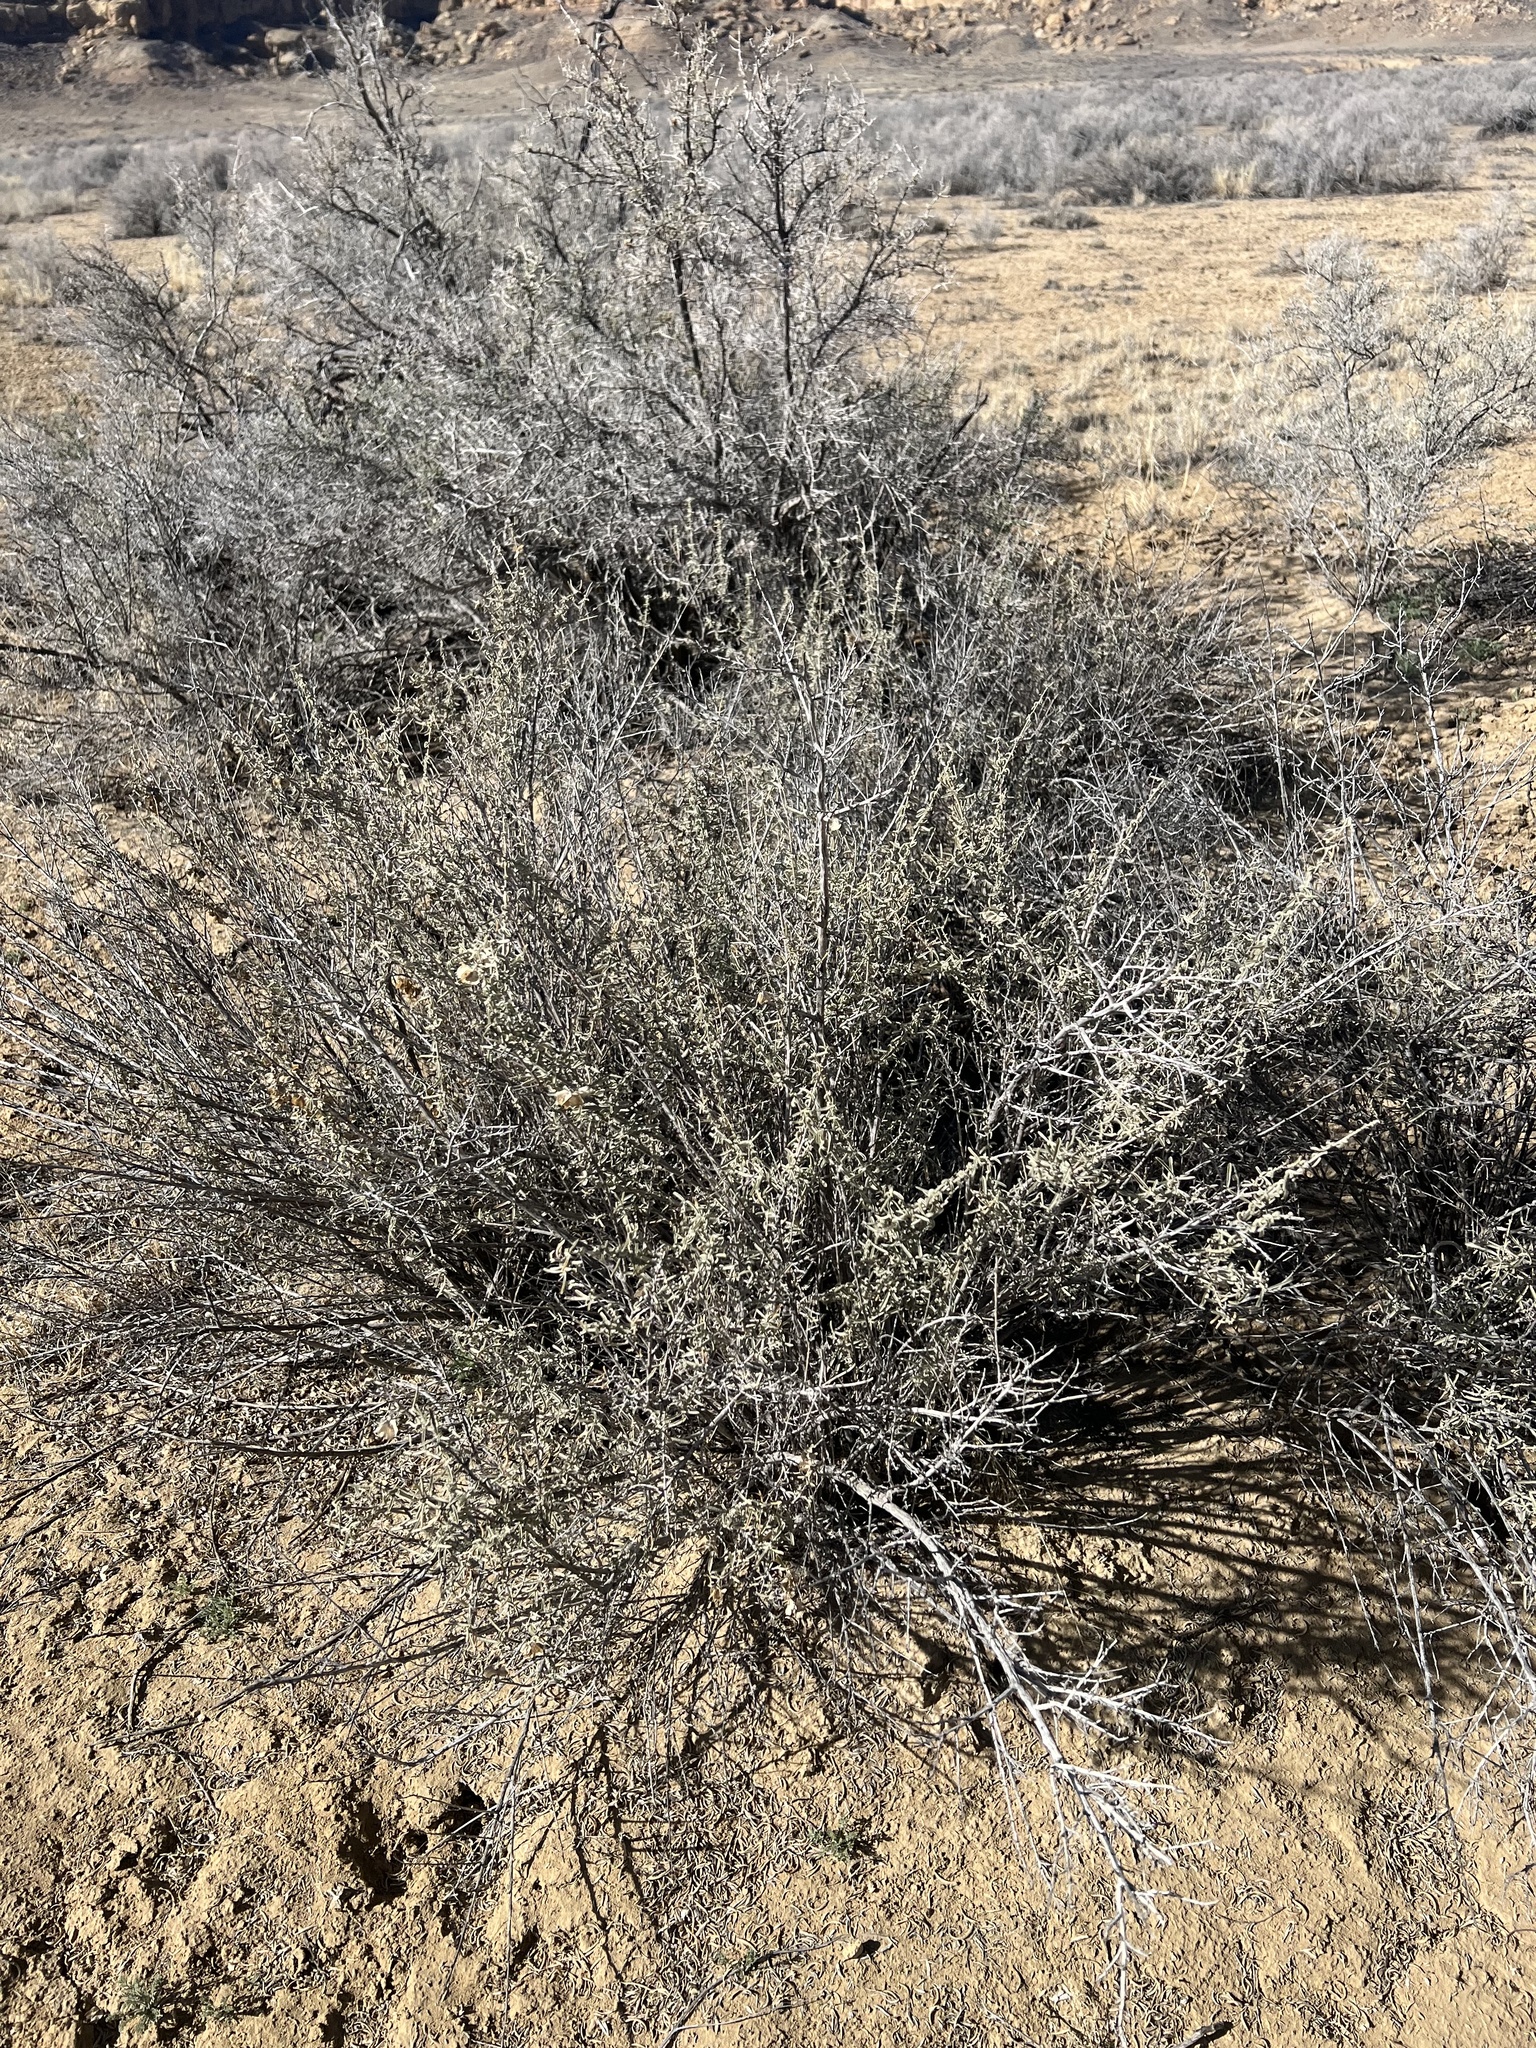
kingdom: Plantae
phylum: Tracheophyta
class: Magnoliopsida
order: Caryophyllales
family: Amaranthaceae
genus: Atriplex
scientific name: Atriplex canescens
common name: Four-wing saltbush
